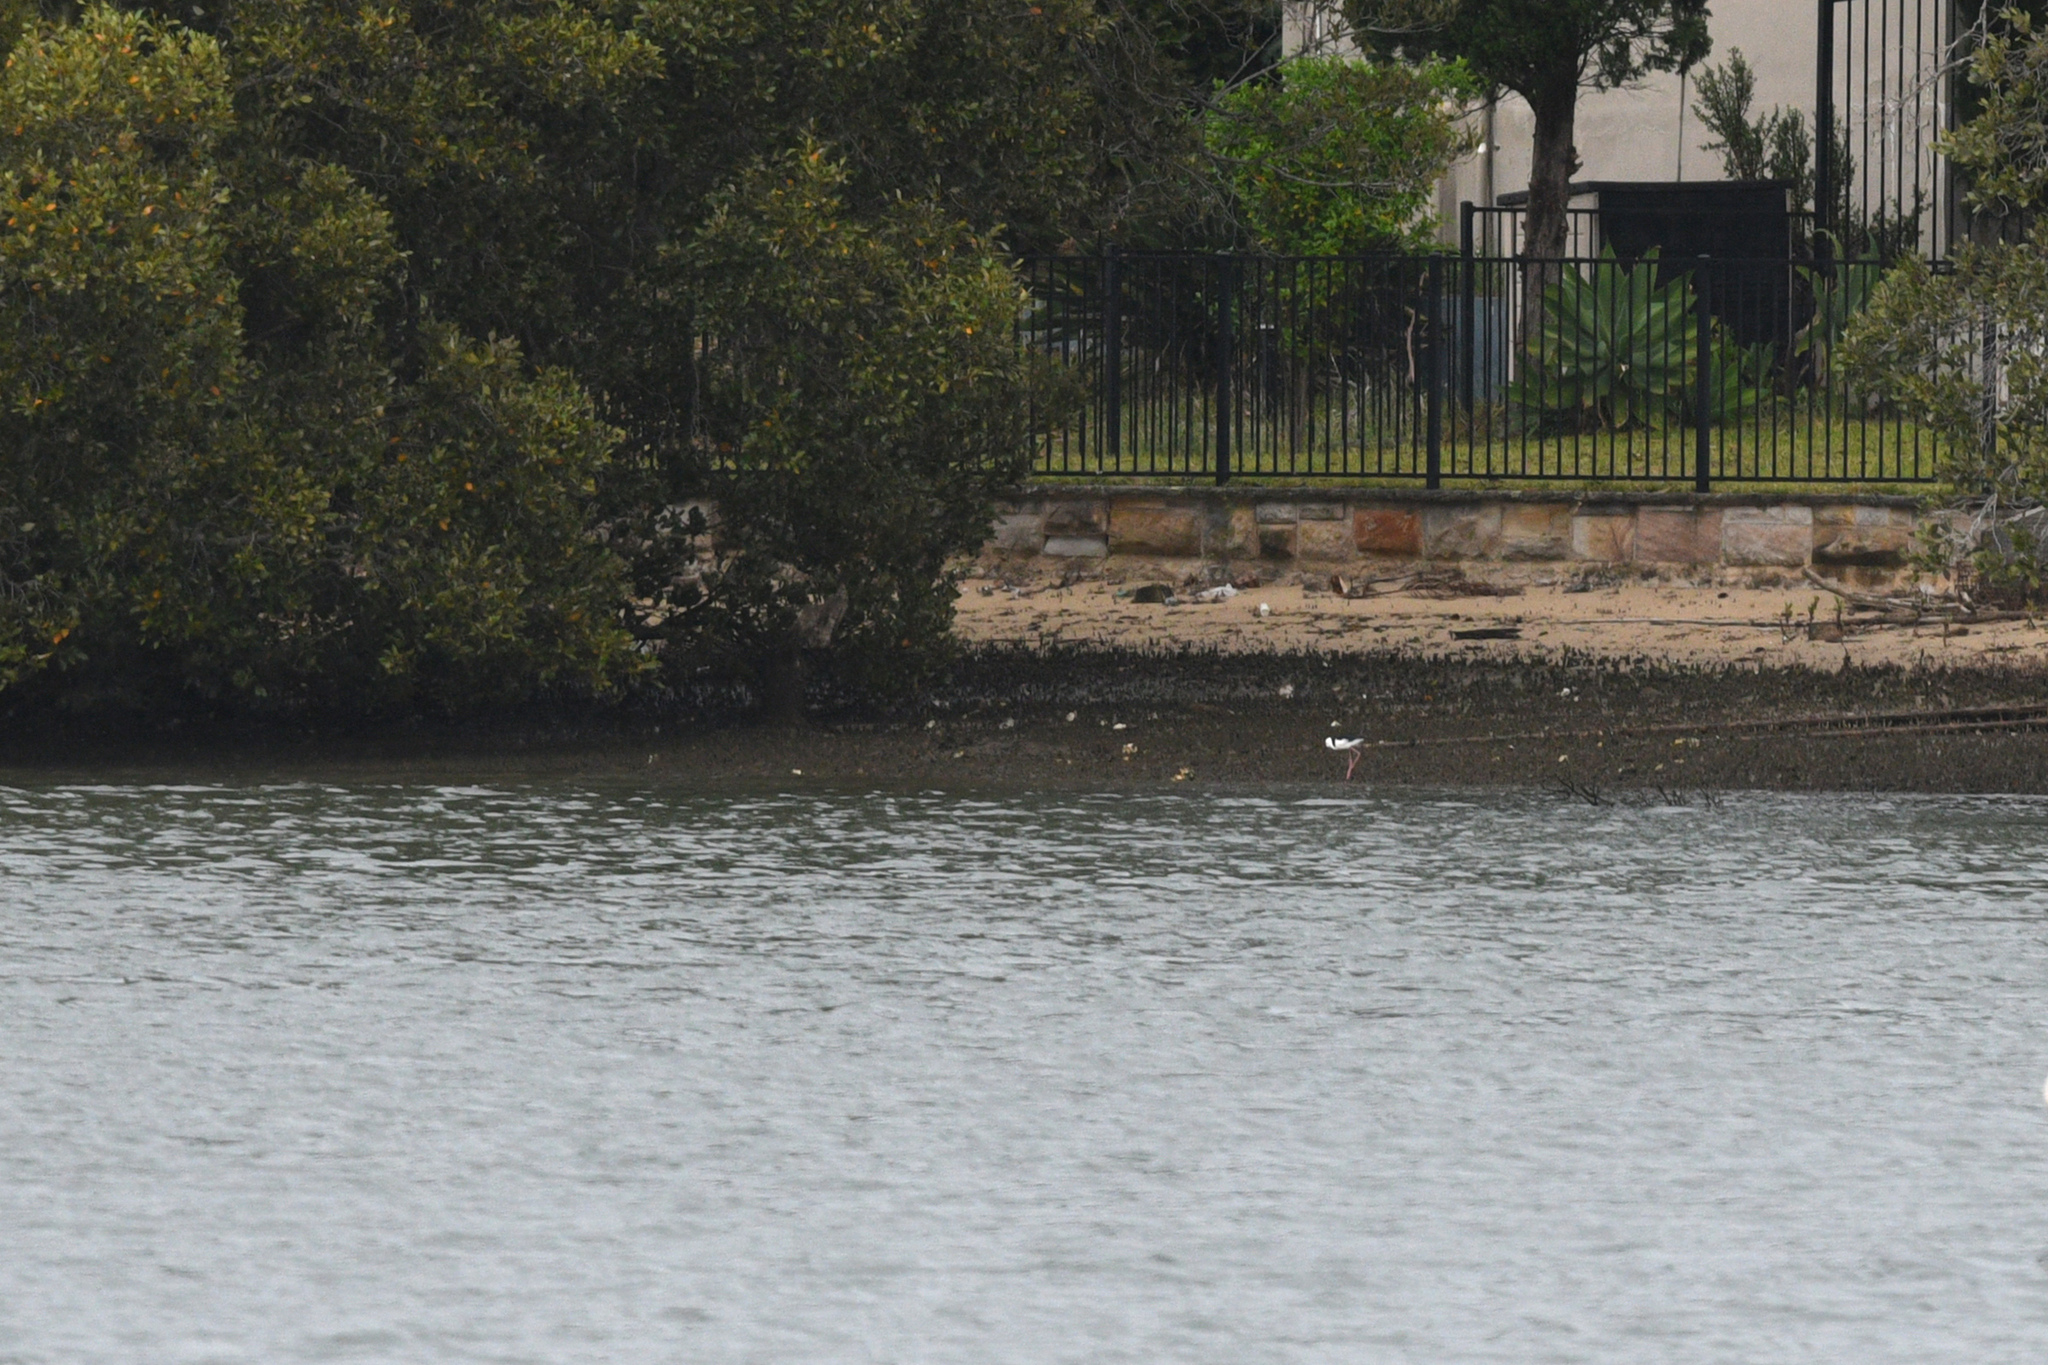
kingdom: Animalia
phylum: Chordata
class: Aves
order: Charadriiformes
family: Recurvirostridae
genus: Himantopus
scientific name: Himantopus leucocephalus
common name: White-headed stilt
